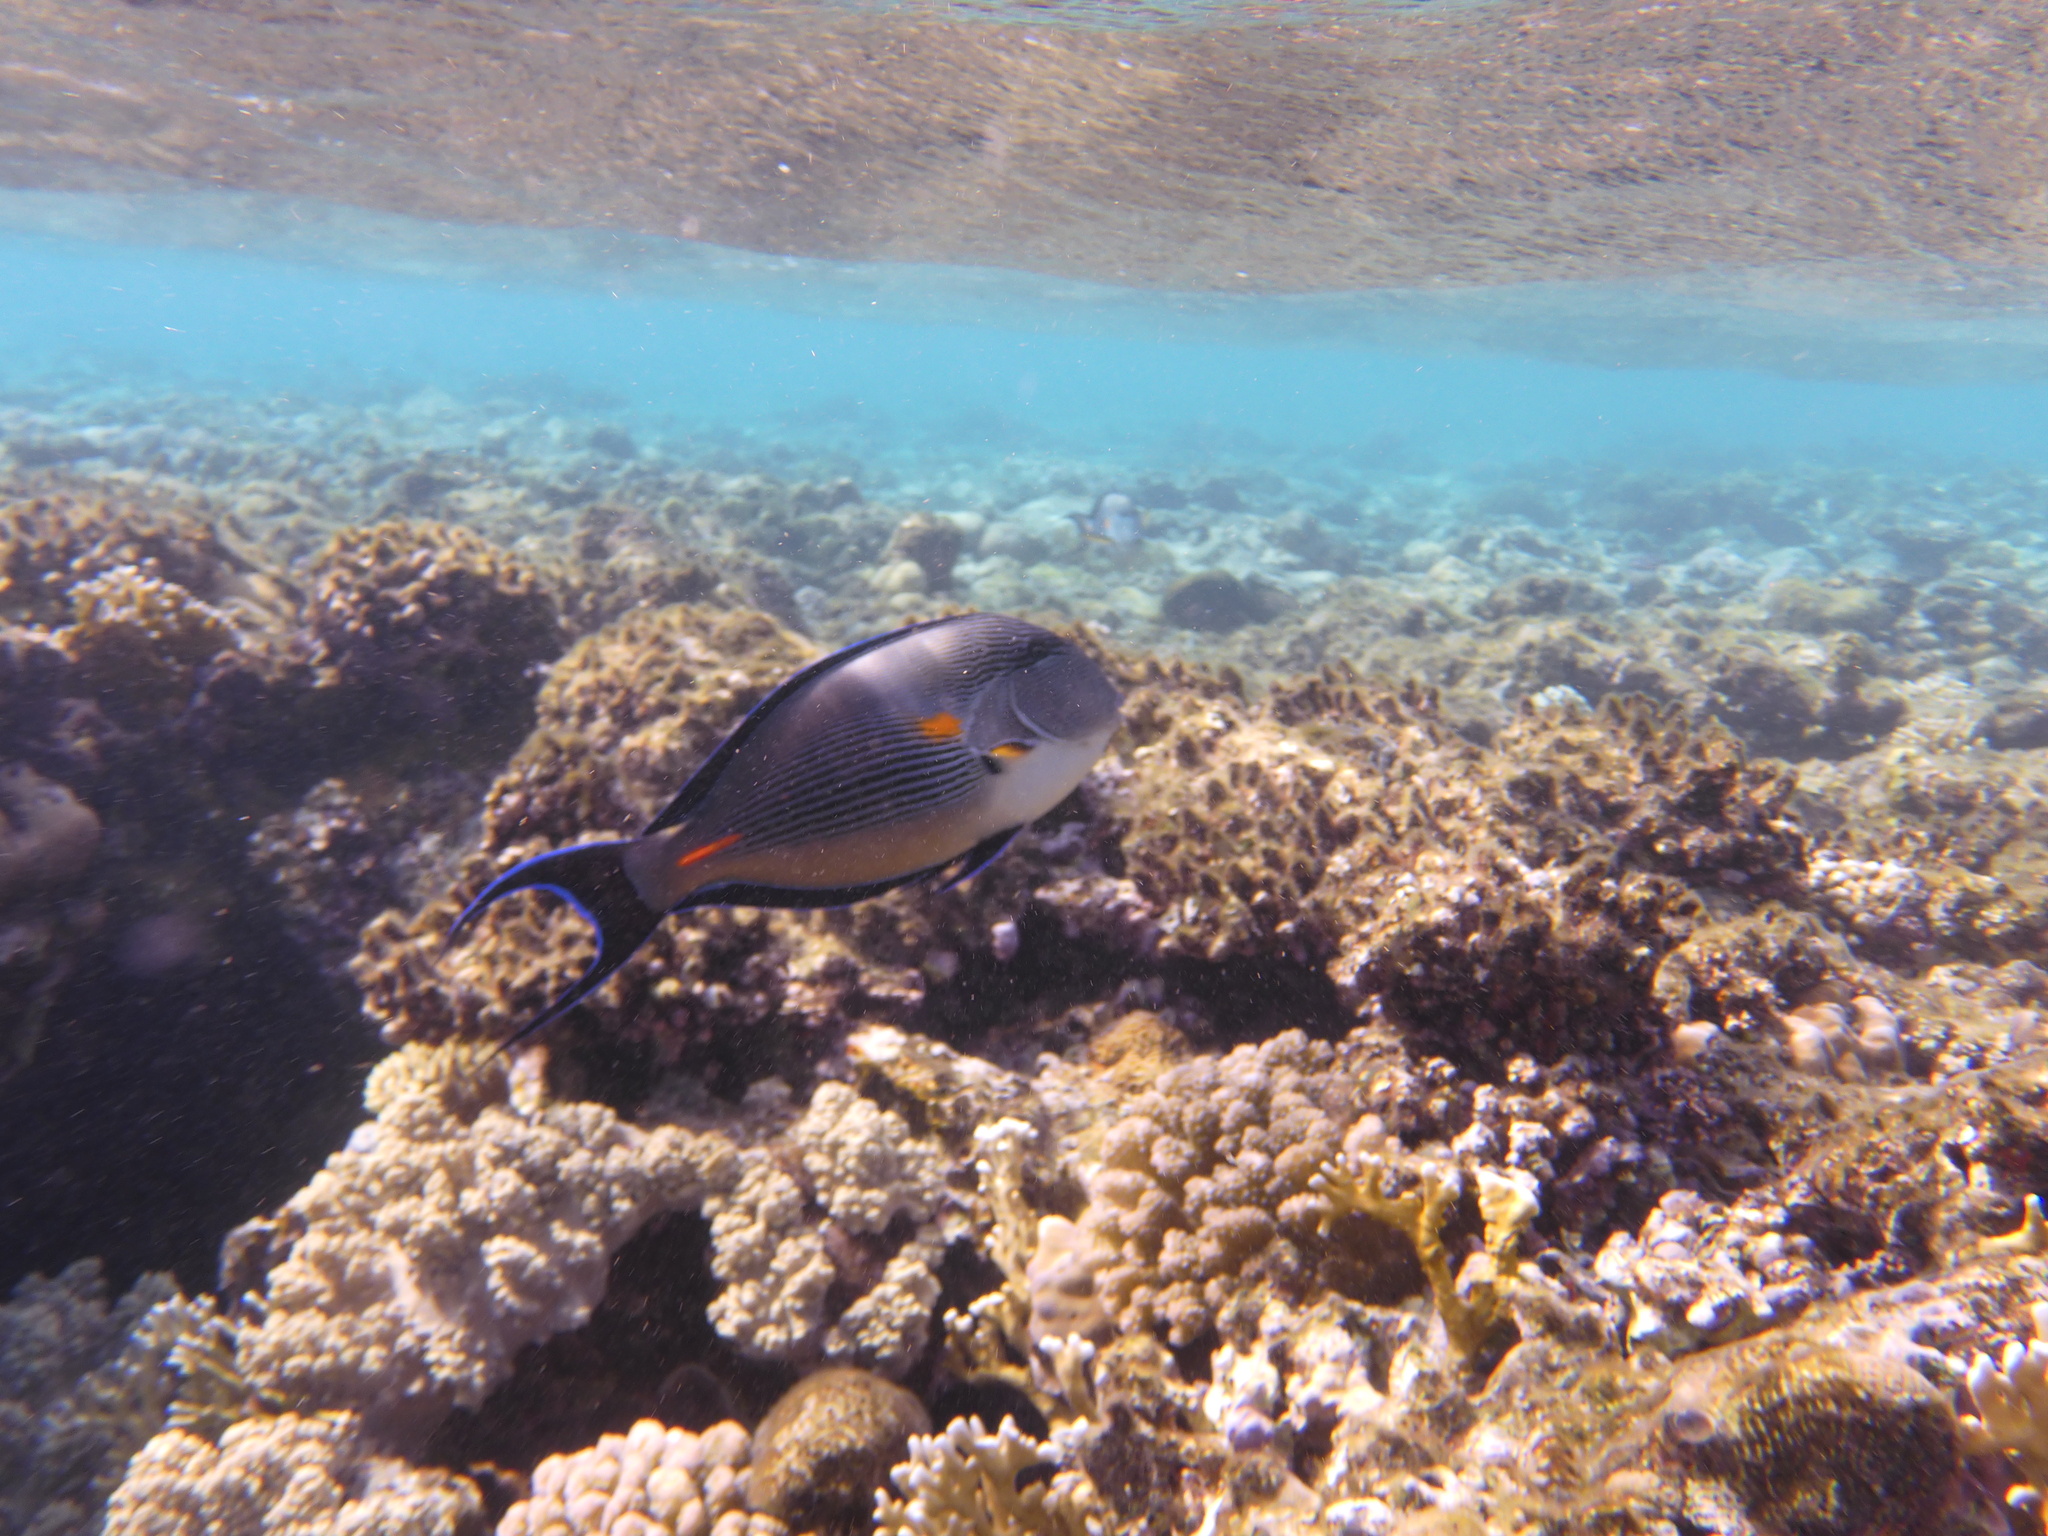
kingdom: Animalia
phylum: Chordata
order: Perciformes
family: Acanthuridae
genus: Acanthurus
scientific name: Acanthurus sohal
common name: Red sea surgeonfish
